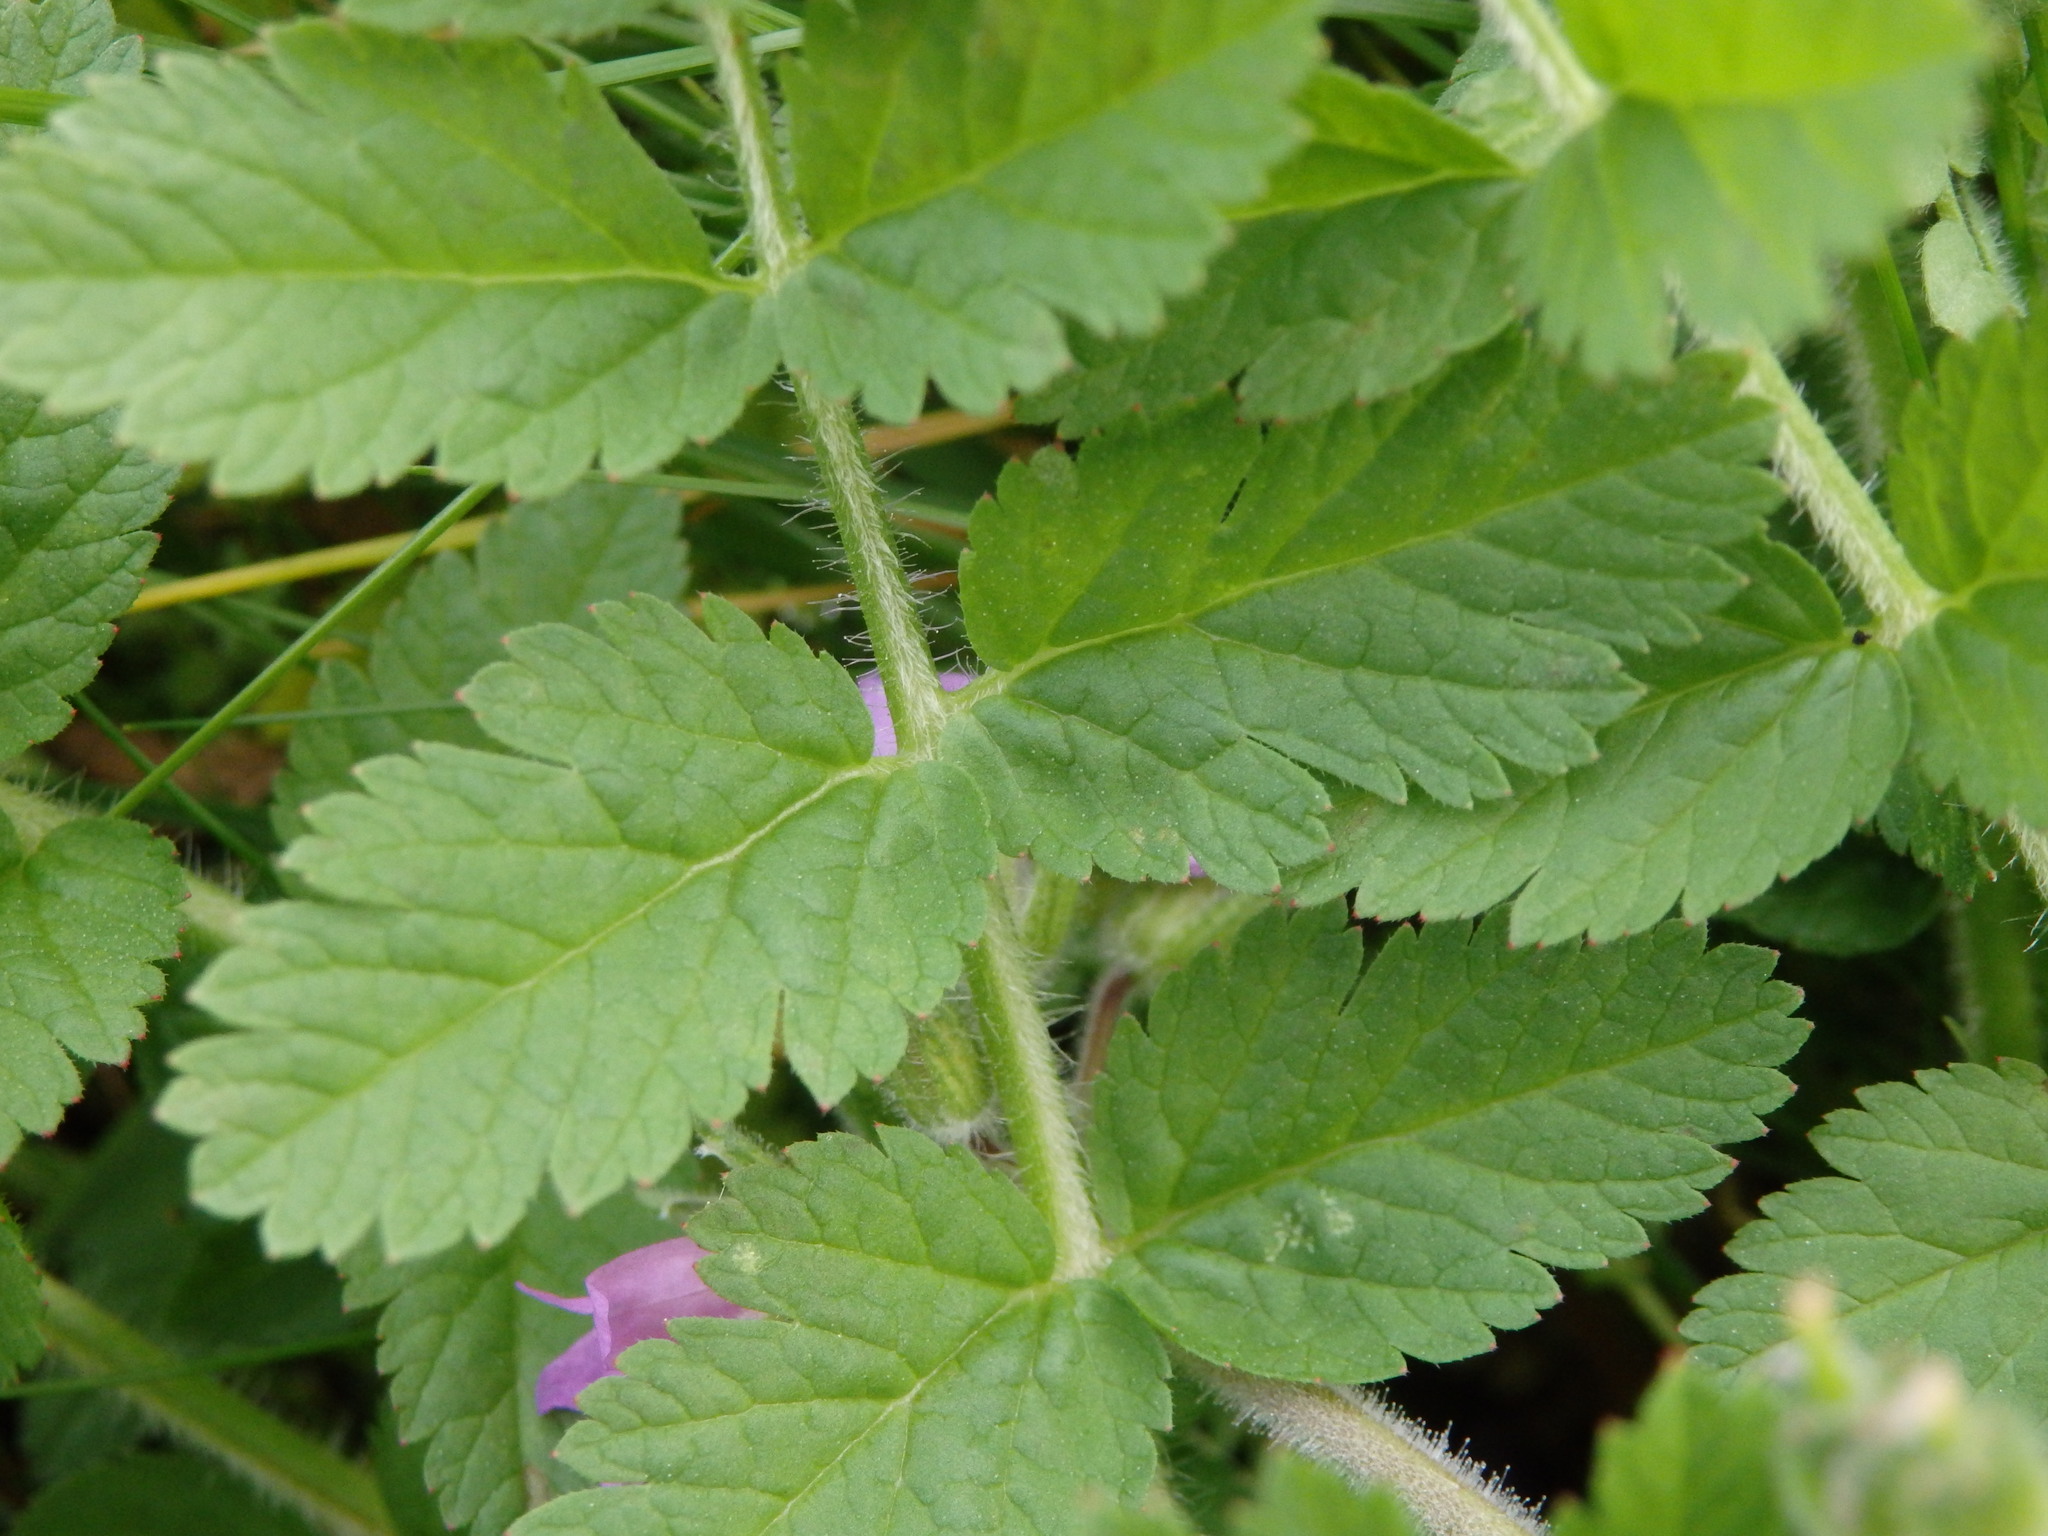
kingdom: Plantae
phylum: Tracheophyta
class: Magnoliopsida
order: Geraniales
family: Geraniaceae
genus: Erodium
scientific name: Erodium moschatum
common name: Musk stork's-bill
